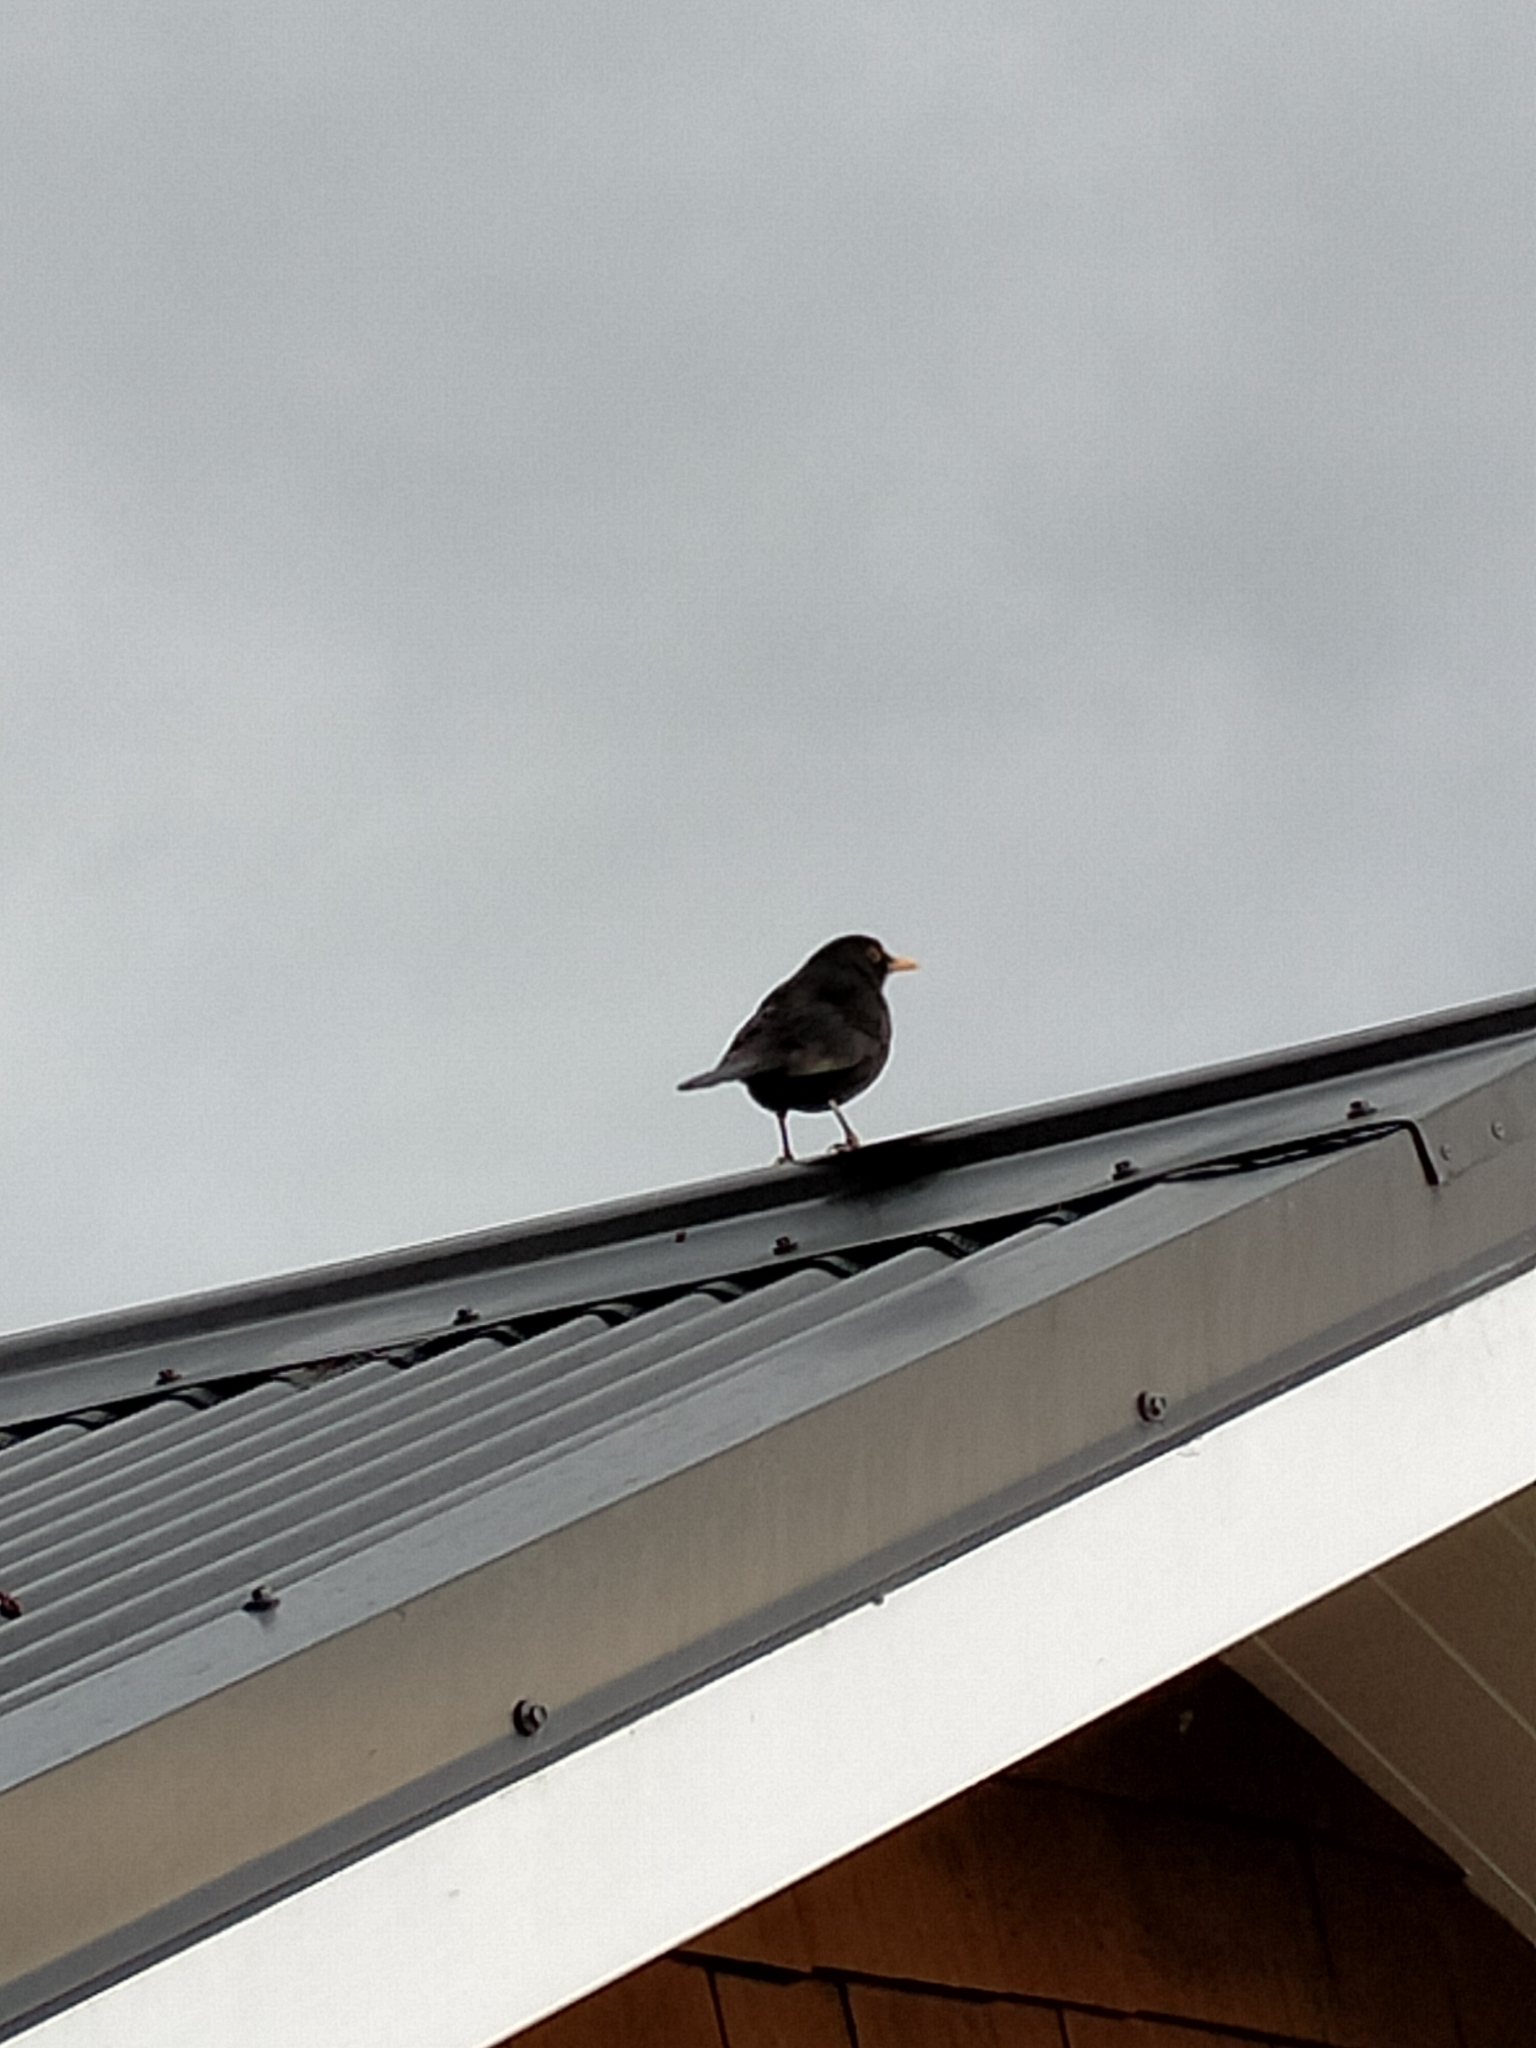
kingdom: Animalia
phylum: Chordata
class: Aves
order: Passeriformes
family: Turdidae
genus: Turdus
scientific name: Turdus merula
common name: Common blackbird
